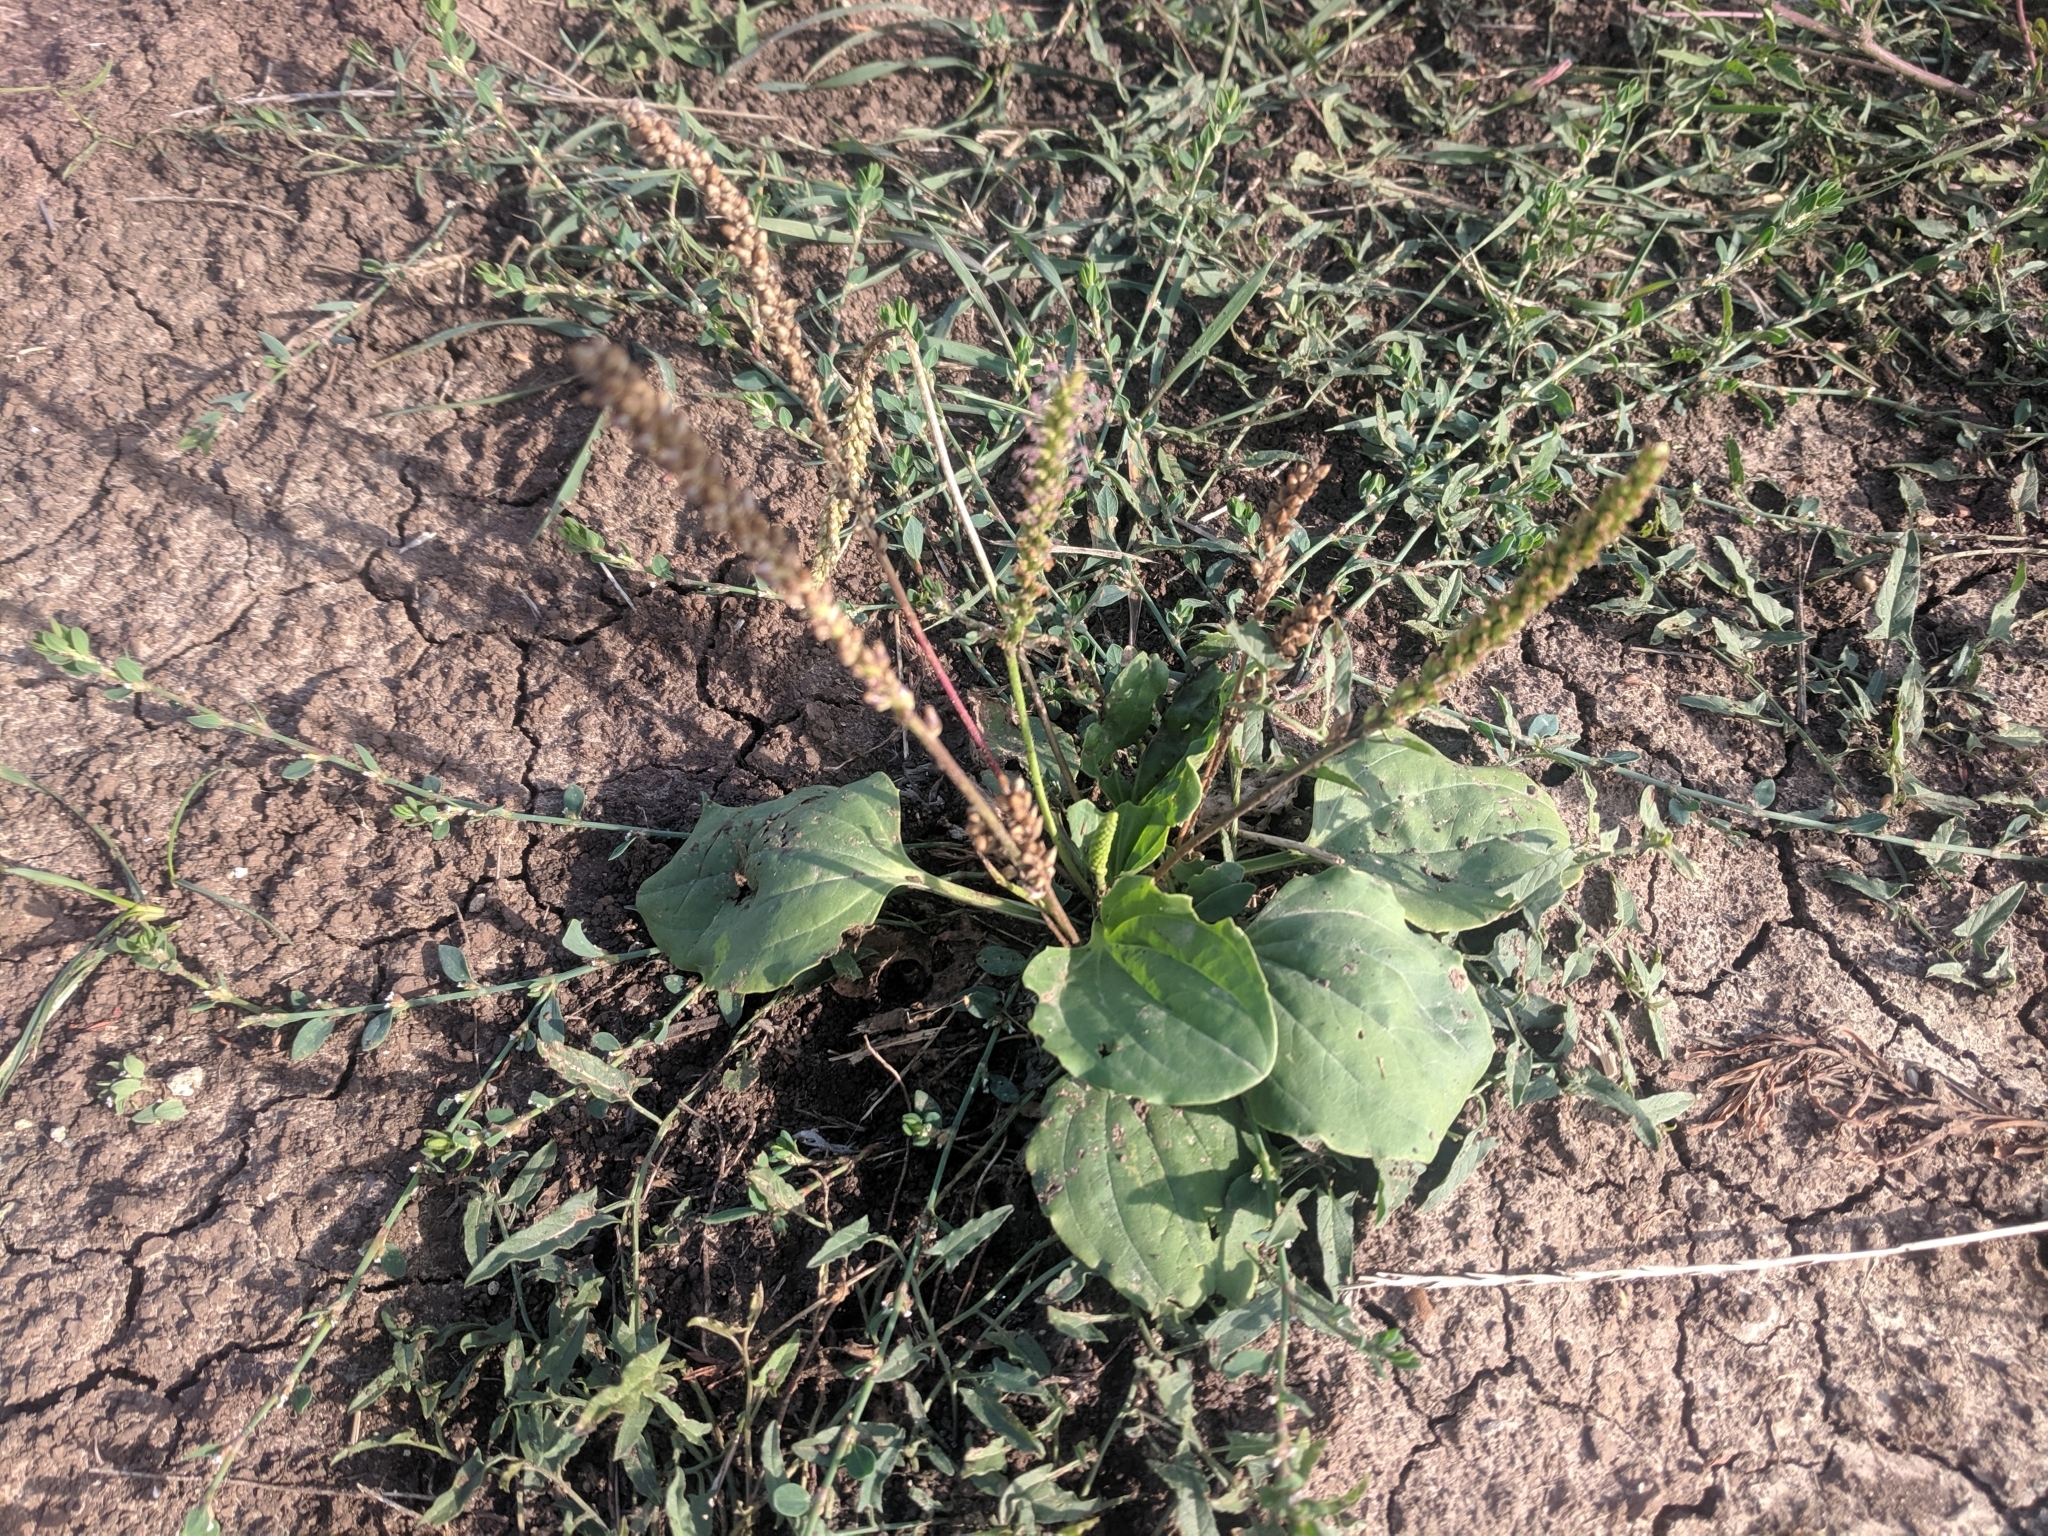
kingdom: Plantae
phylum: Tracheophyta
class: Magnoliopsida
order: Lamiales
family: Plantaginaceae
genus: Plantago
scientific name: Plantago major
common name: Common plantain
